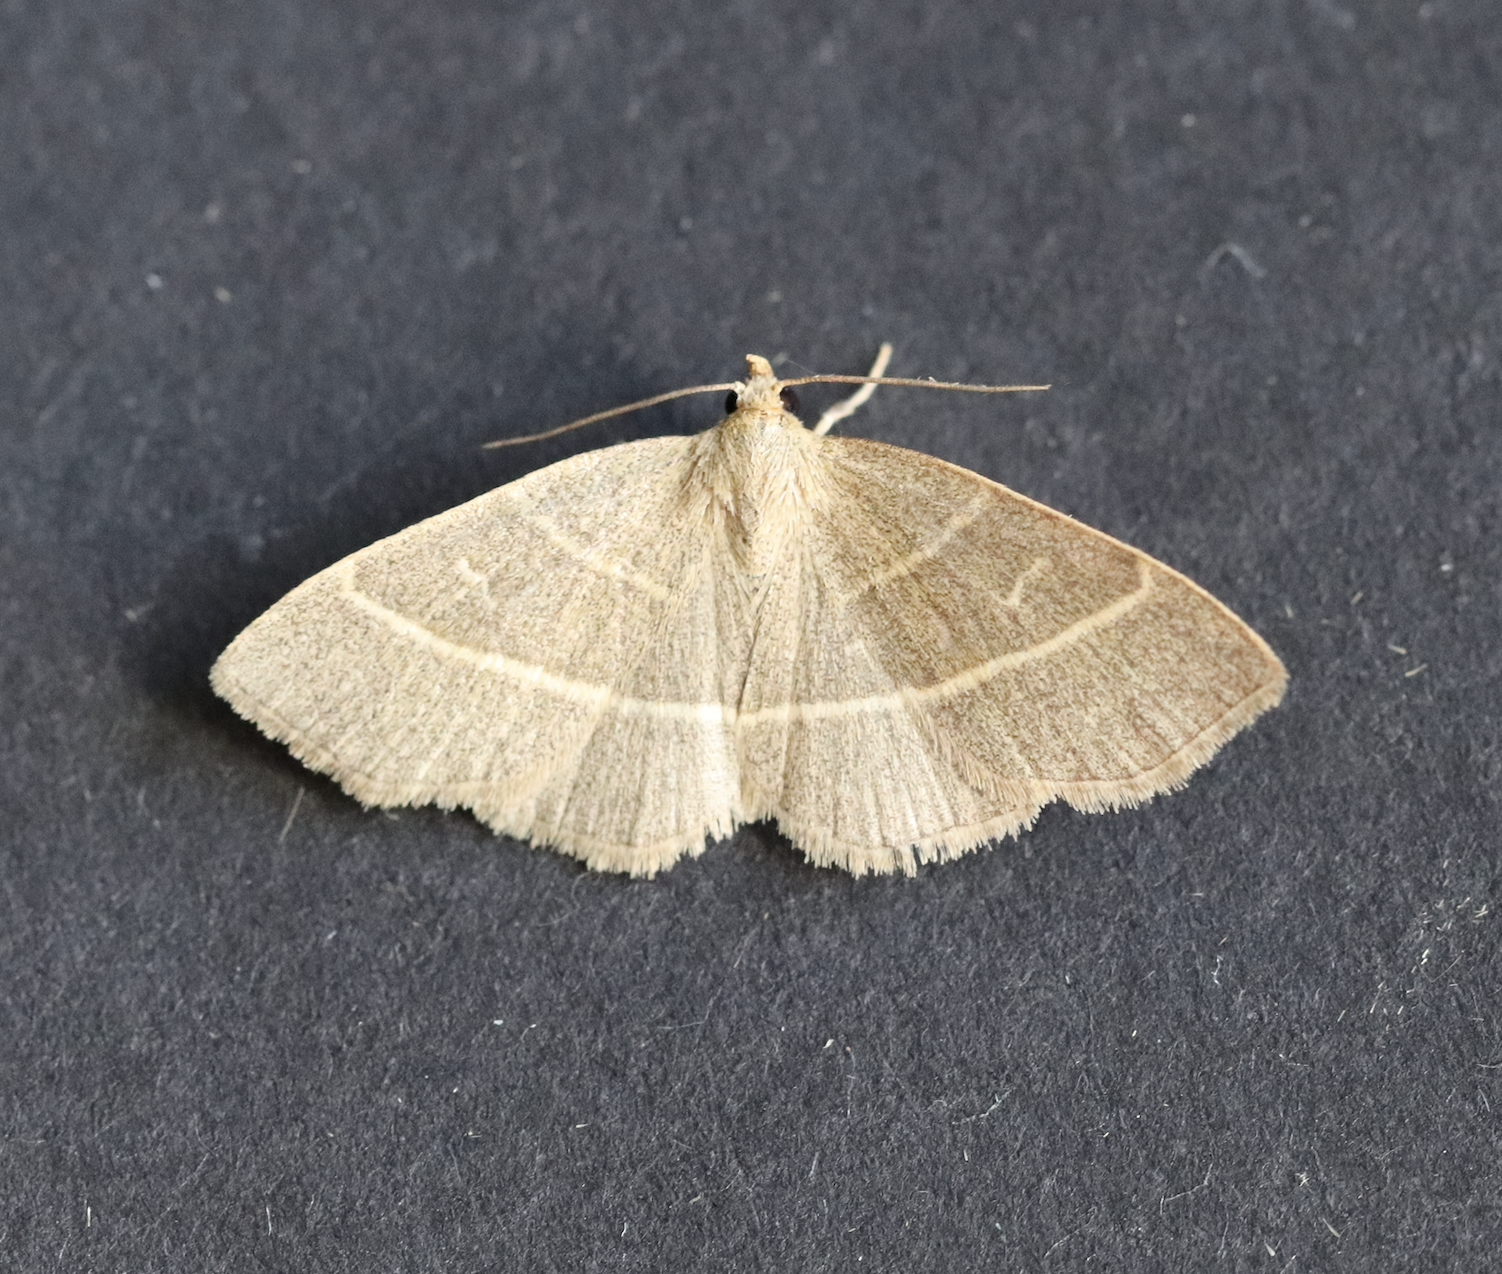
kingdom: Animalia
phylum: Arthropoda
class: Insecta
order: Lepidoptera
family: Erebidae
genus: Trisateles
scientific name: Trisateles emortualis
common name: Olive crescent
